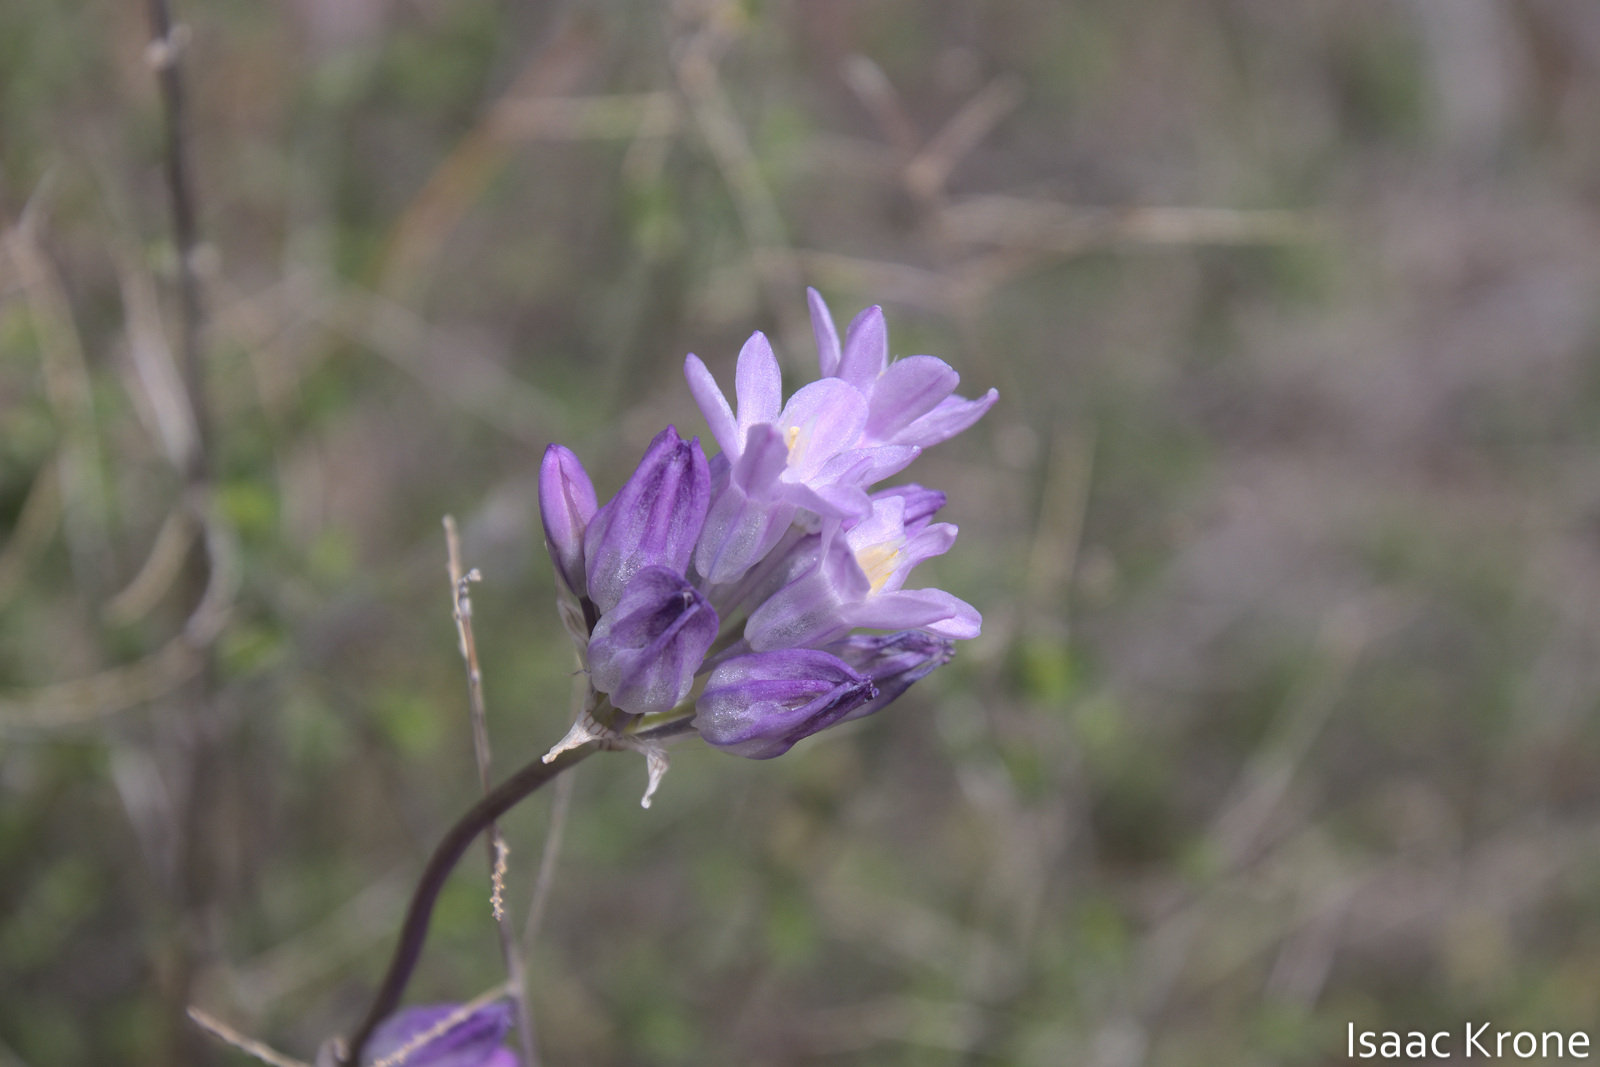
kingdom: Plantae
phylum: Tracheophyta
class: Liliopsida
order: Asparagales
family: Asparagaceae
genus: Dipterostemon
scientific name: Dipterostemon capitatus
